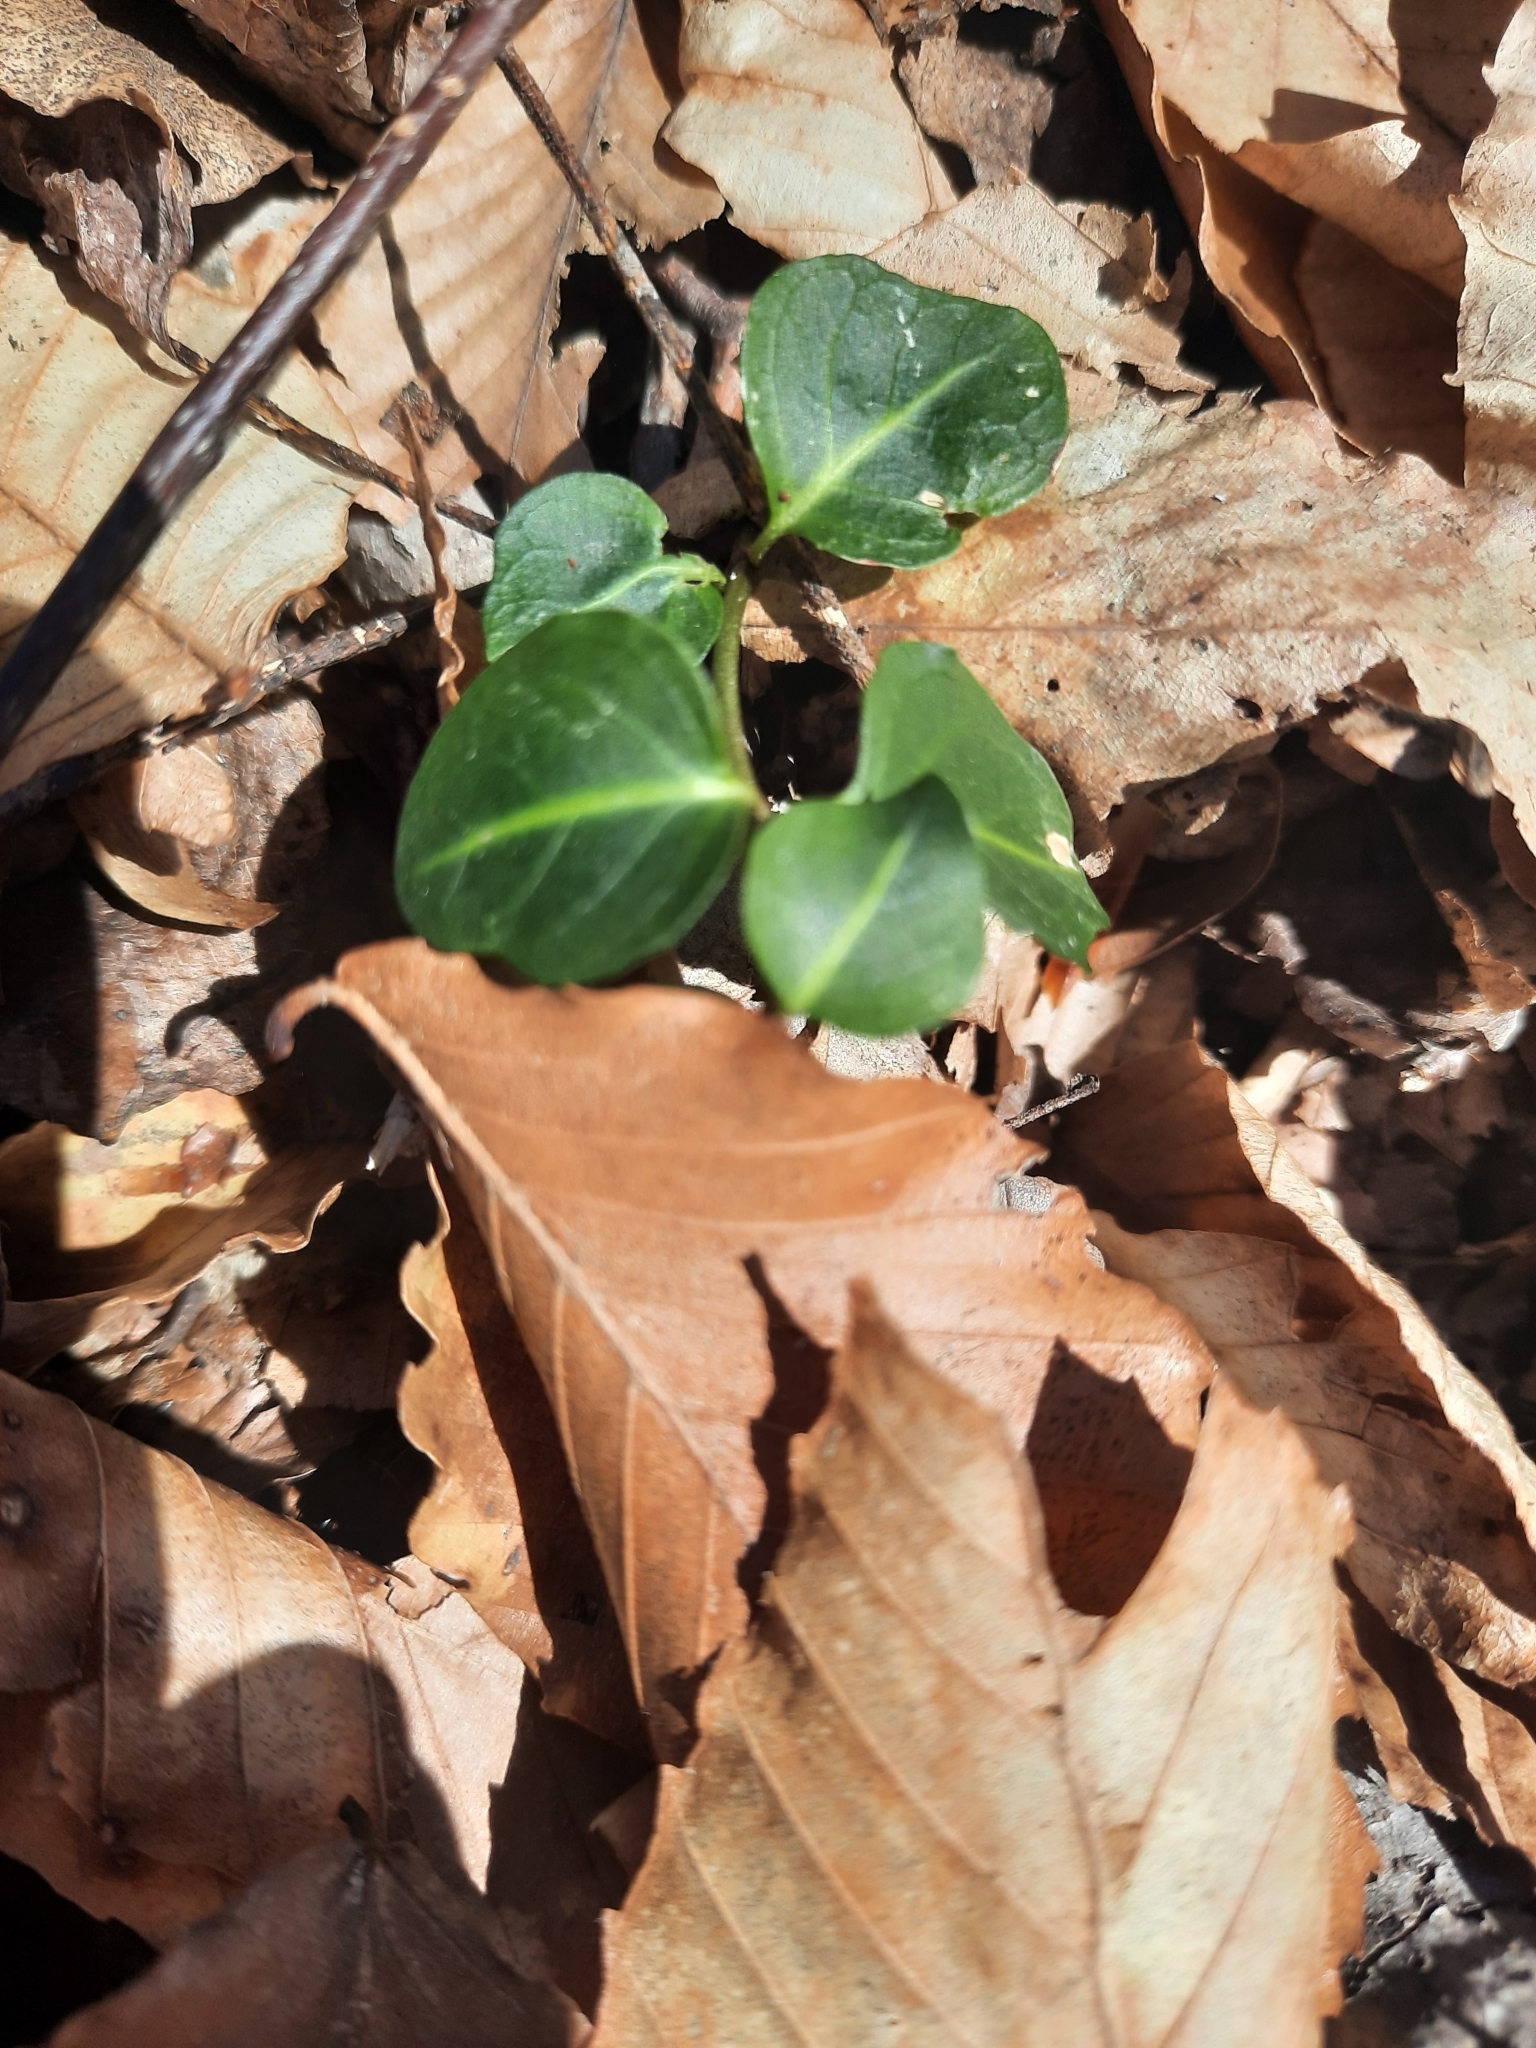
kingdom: Plantae
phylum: Tracheophyta
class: Magnoliopsida
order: Gentianales
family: Rubiaceae
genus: Mitchella
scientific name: Mitchella repens
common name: Partridge-berry
